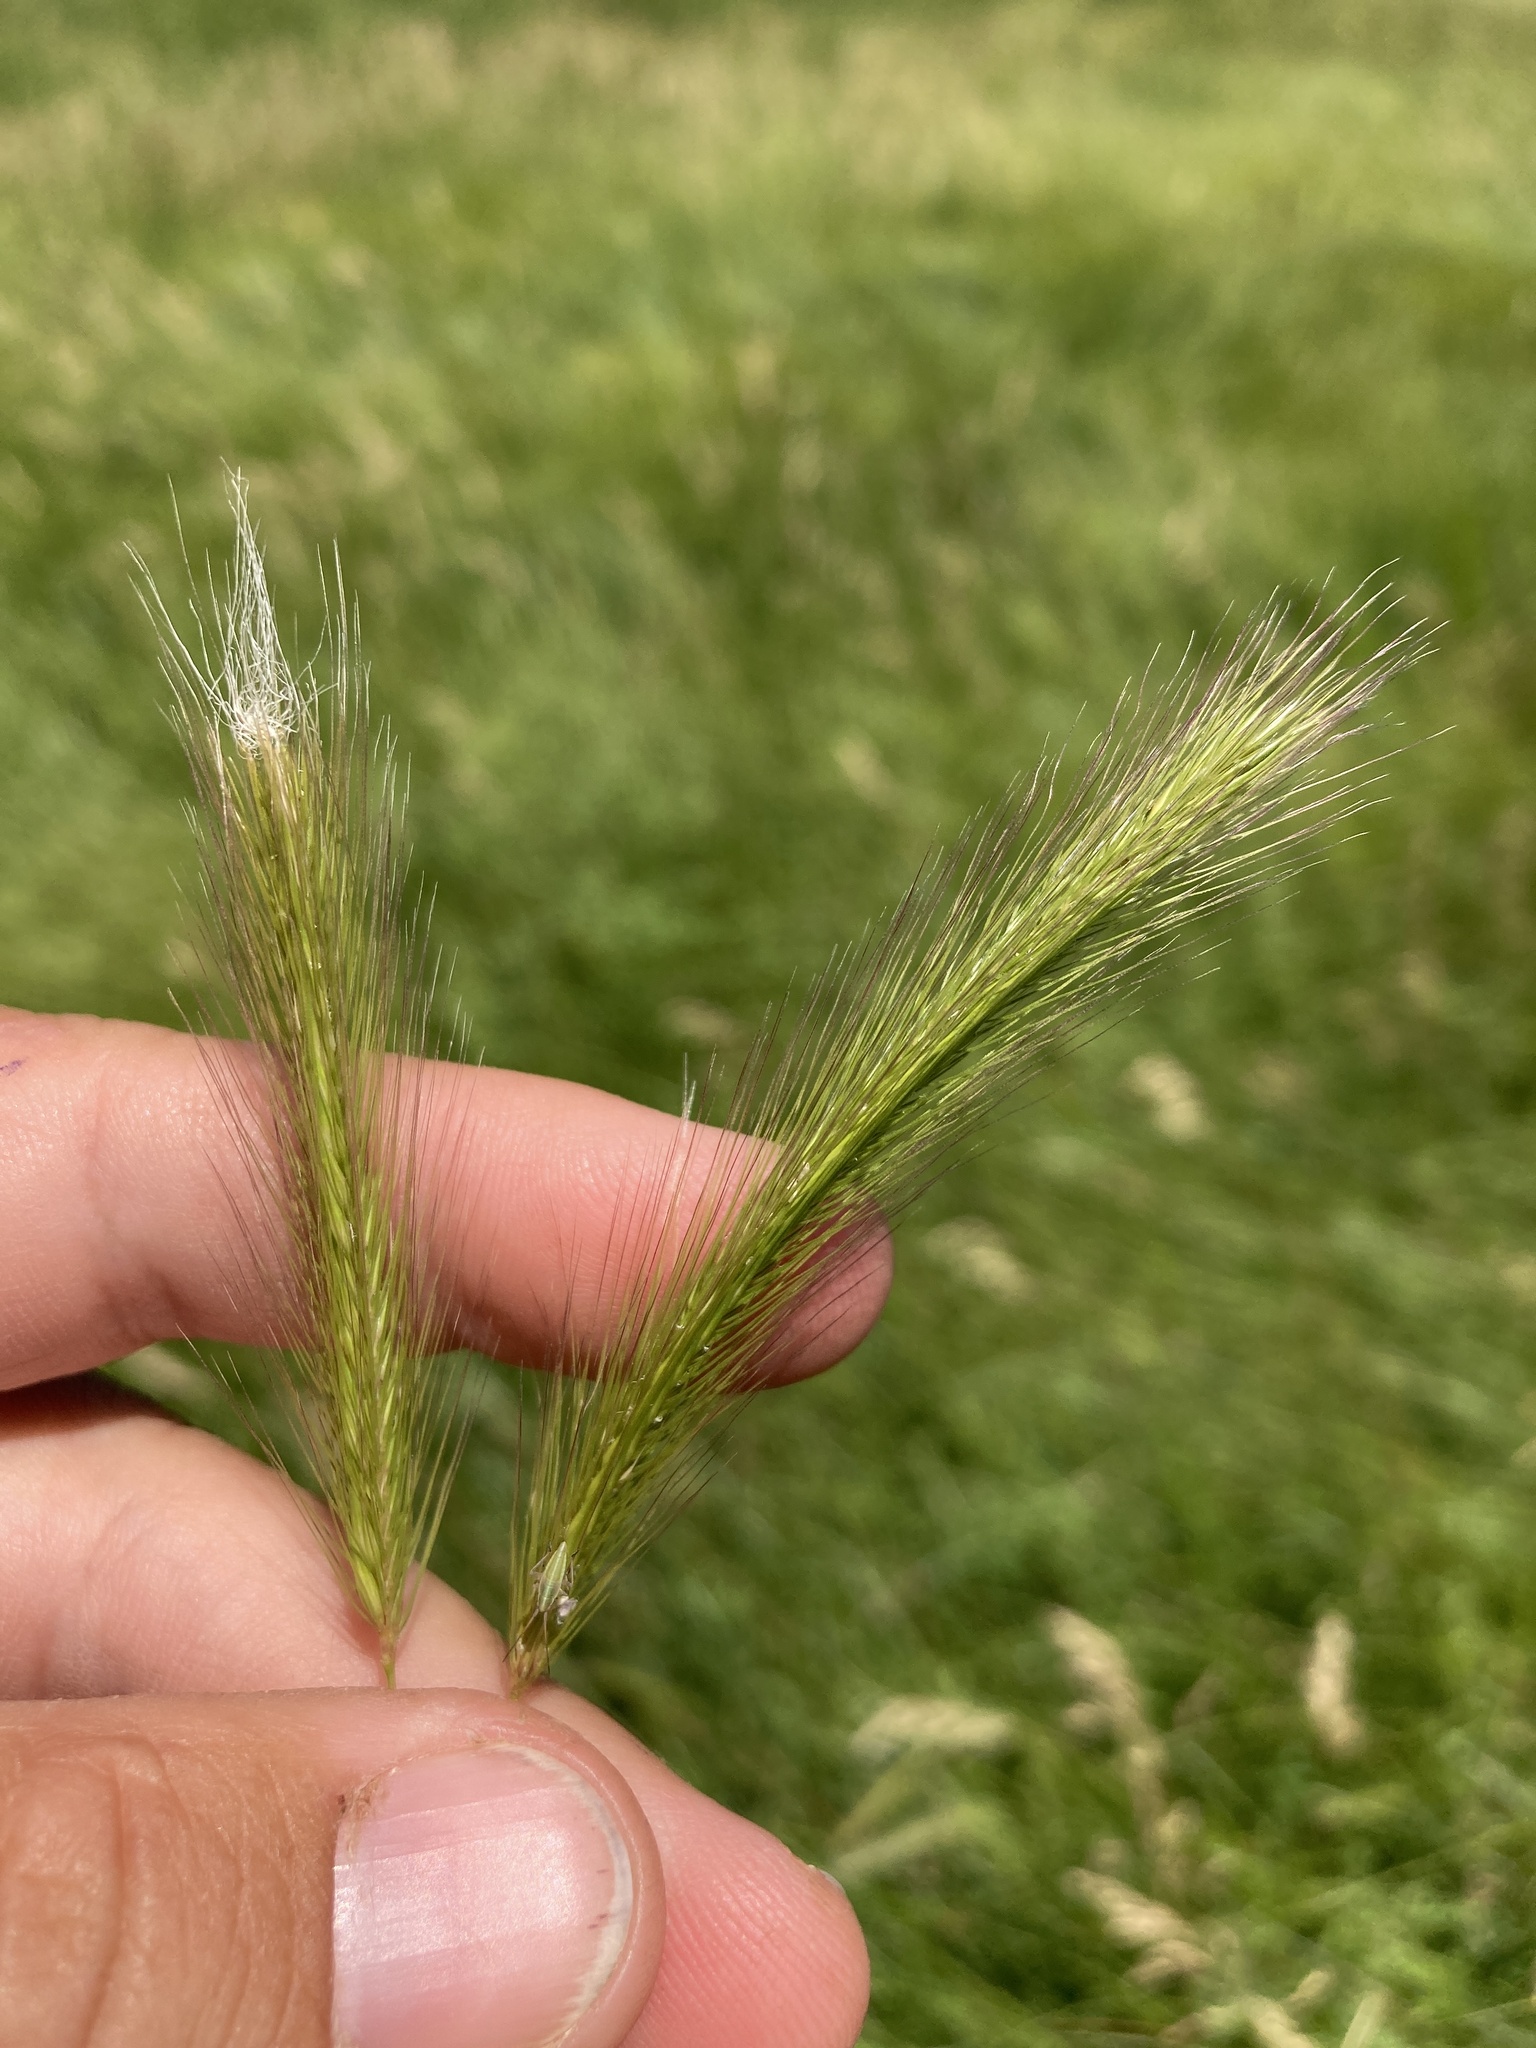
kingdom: Plantae
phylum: Tracheophyta
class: Liliopsida
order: Poales
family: Poaceae
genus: Hordeum
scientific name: Hordeum jubatum
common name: Foxtail barley
